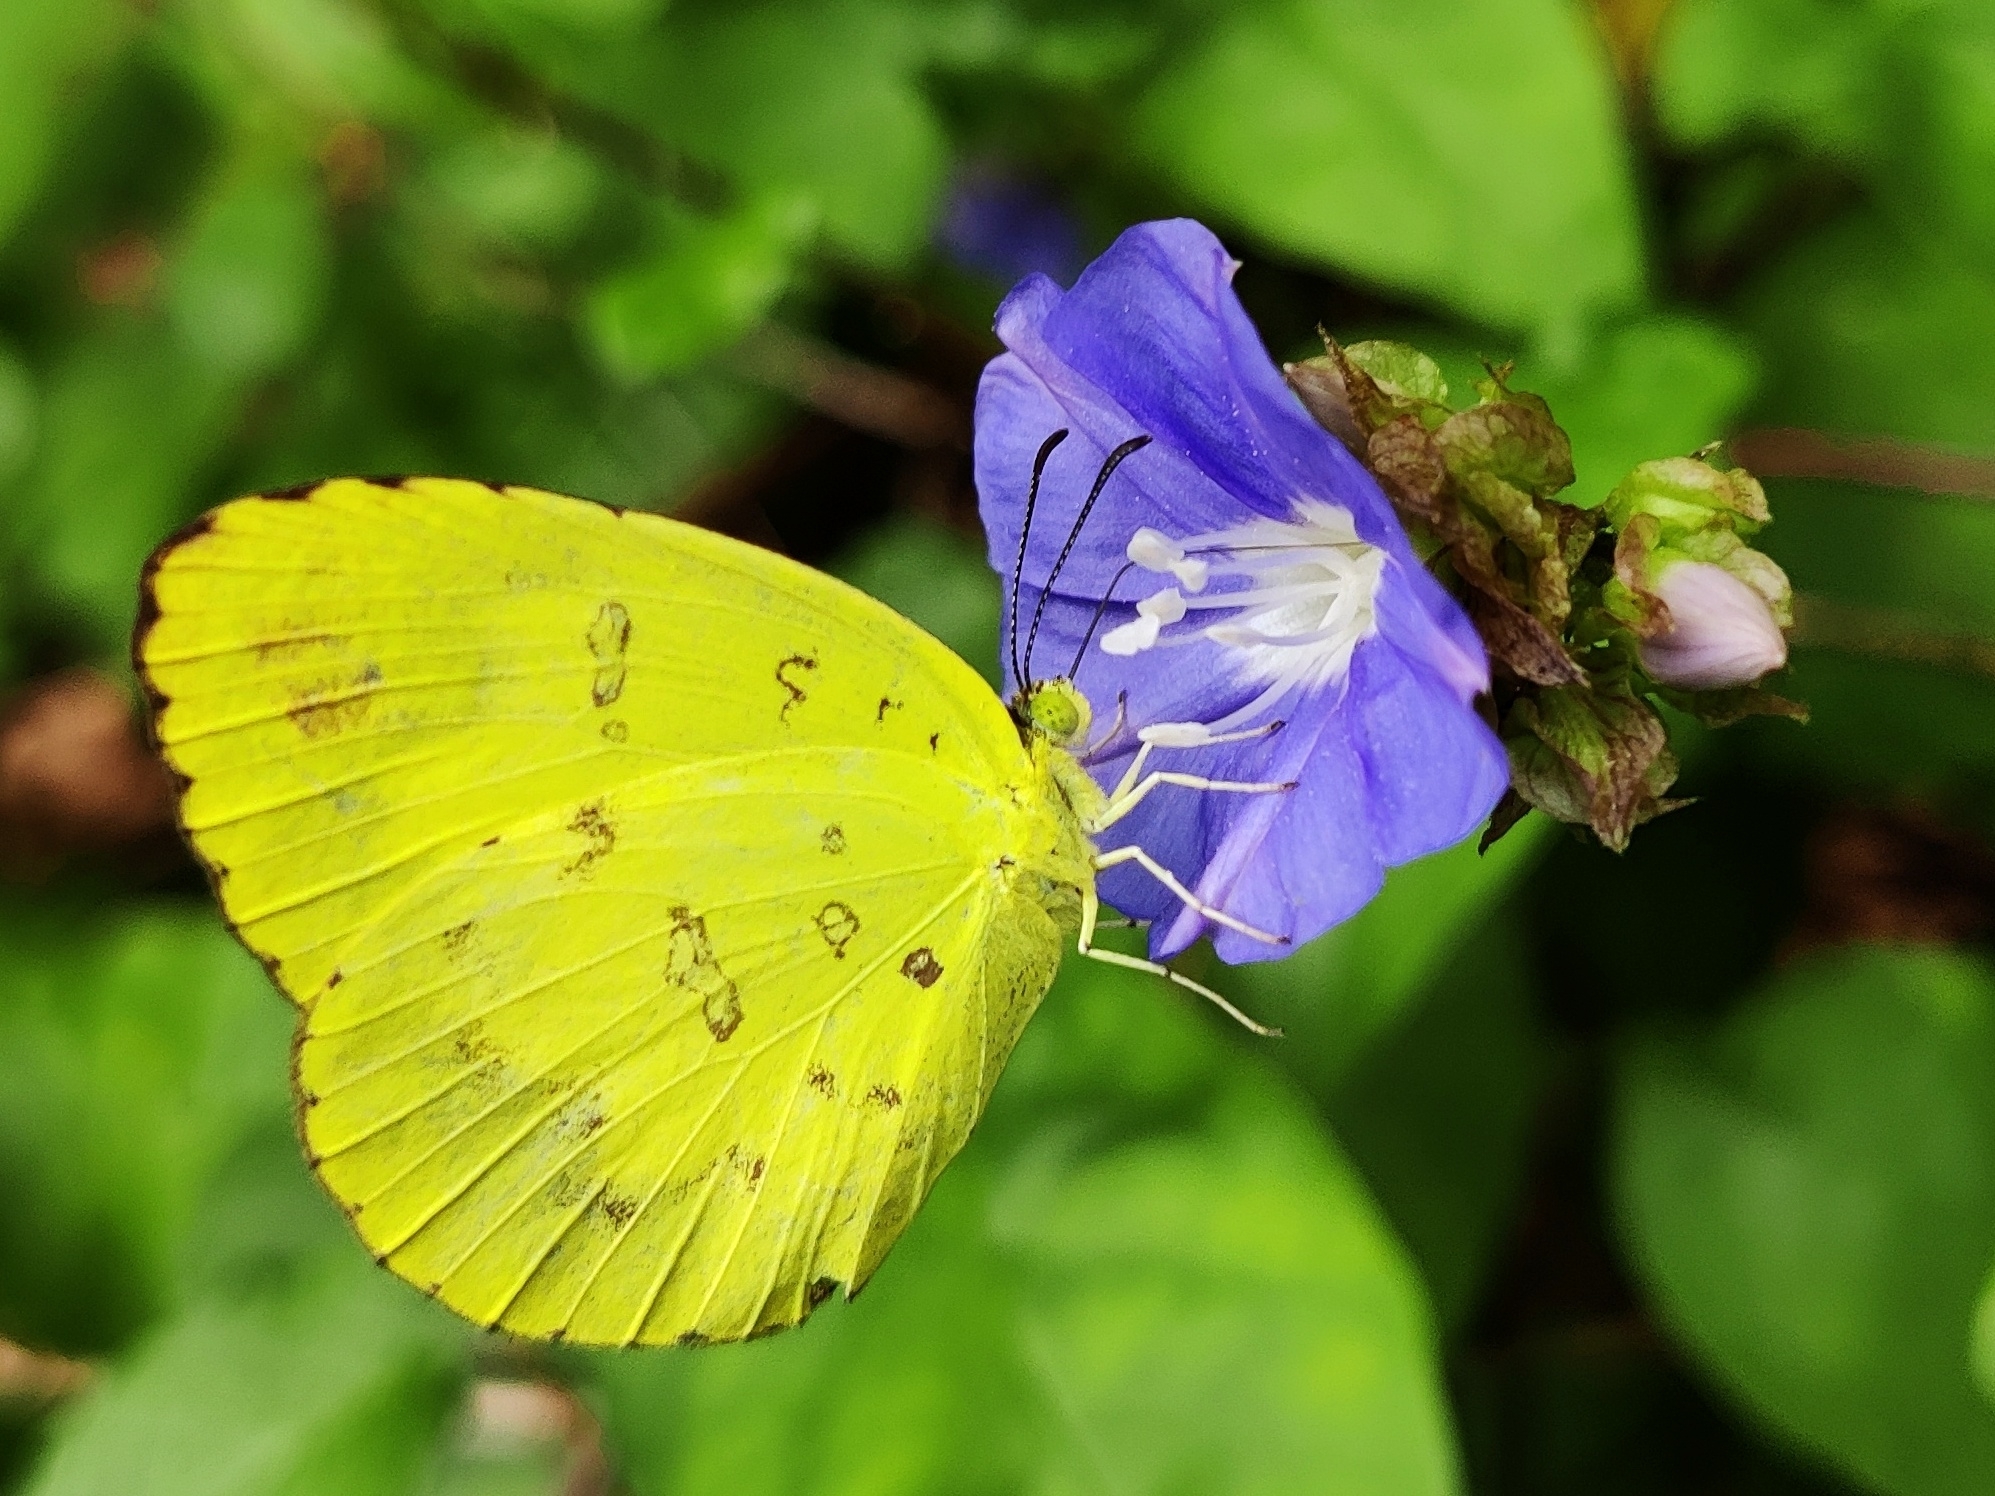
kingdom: Animalia
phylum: Arthropoda
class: Insecta
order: Lepidoptera
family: Pieridae
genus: Eurema
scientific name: Eurema blanda
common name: Three-spot grass yellow
